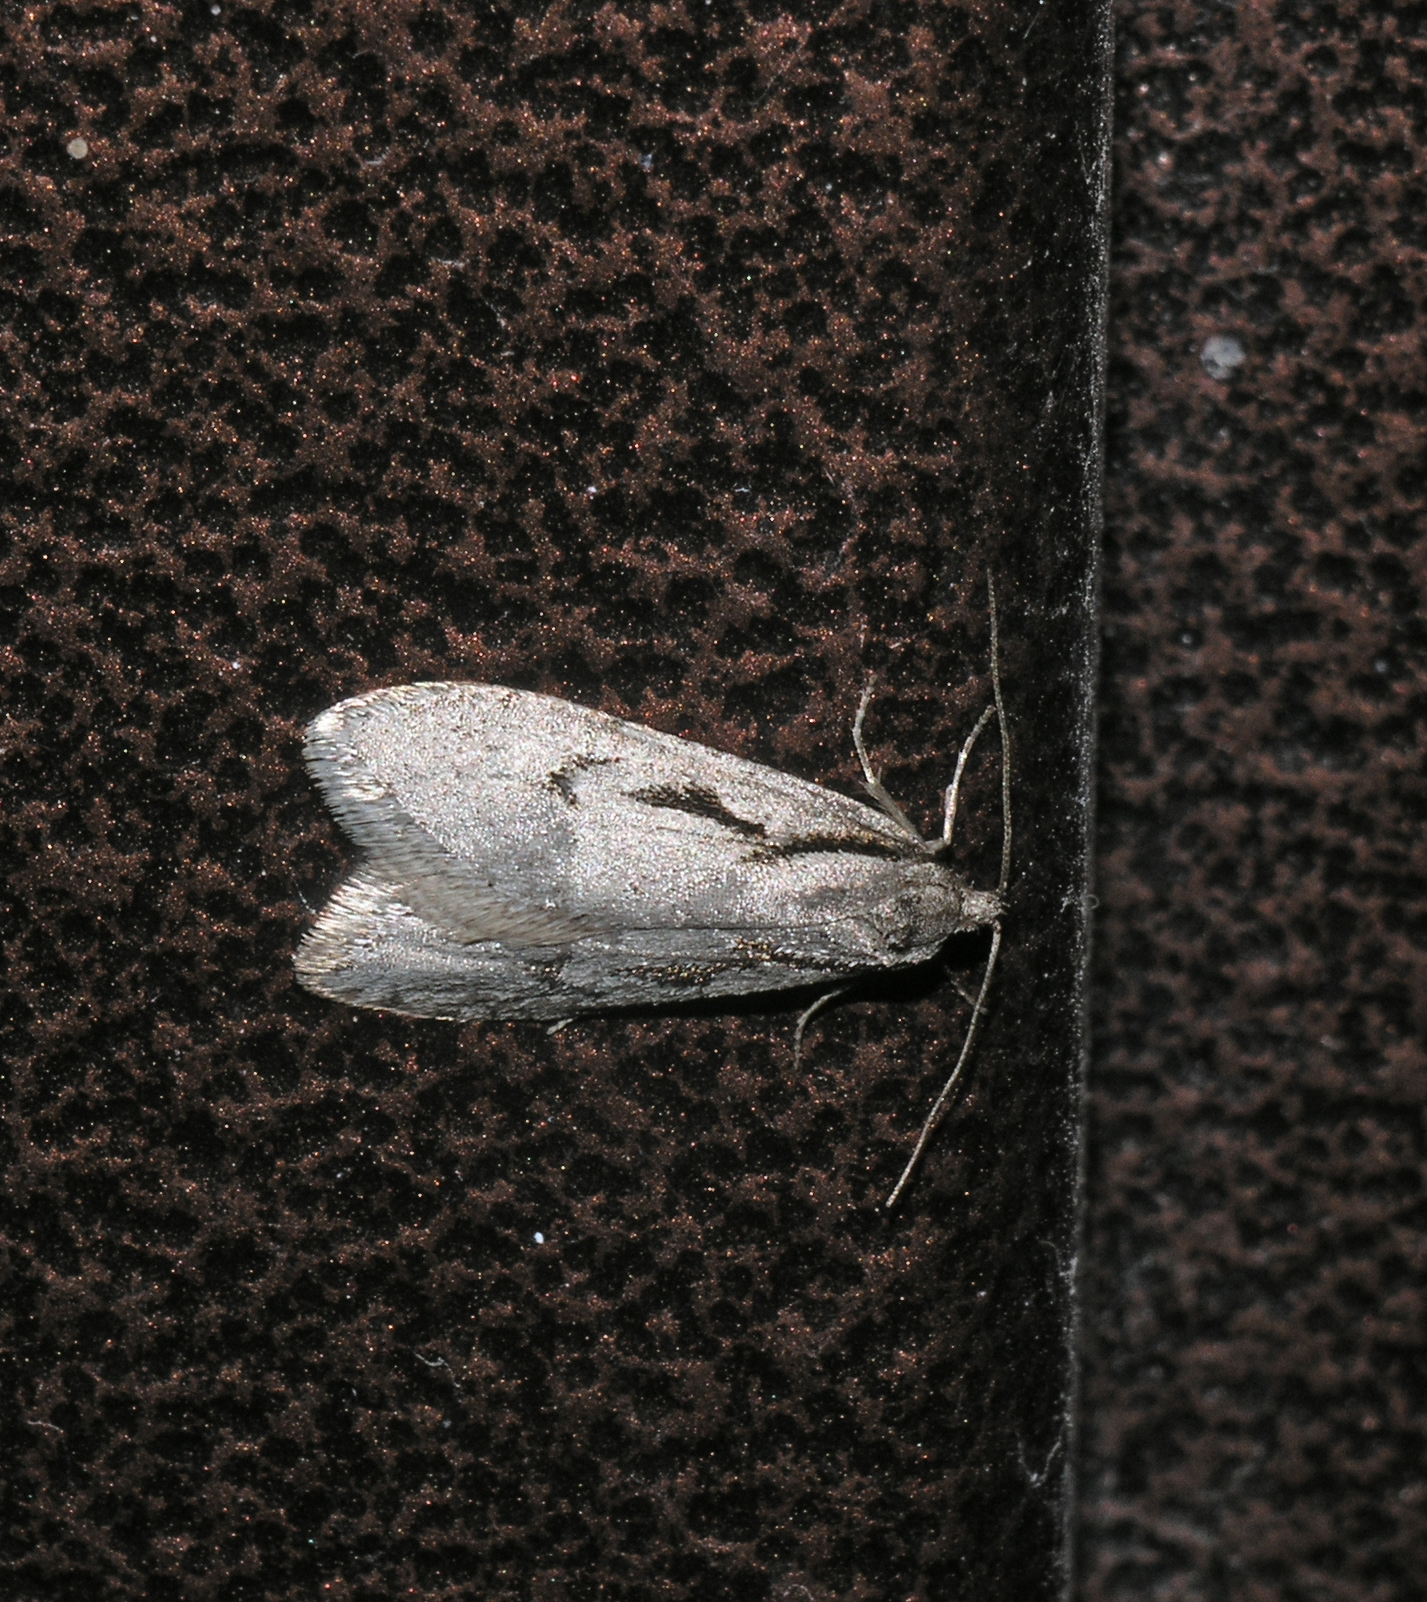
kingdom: Animalia
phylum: Arthropoda
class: Insecta
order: Lepidoptera
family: Depressariidae
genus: Semioscopis
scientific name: Semioscopis avellanella
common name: Early flat-body
